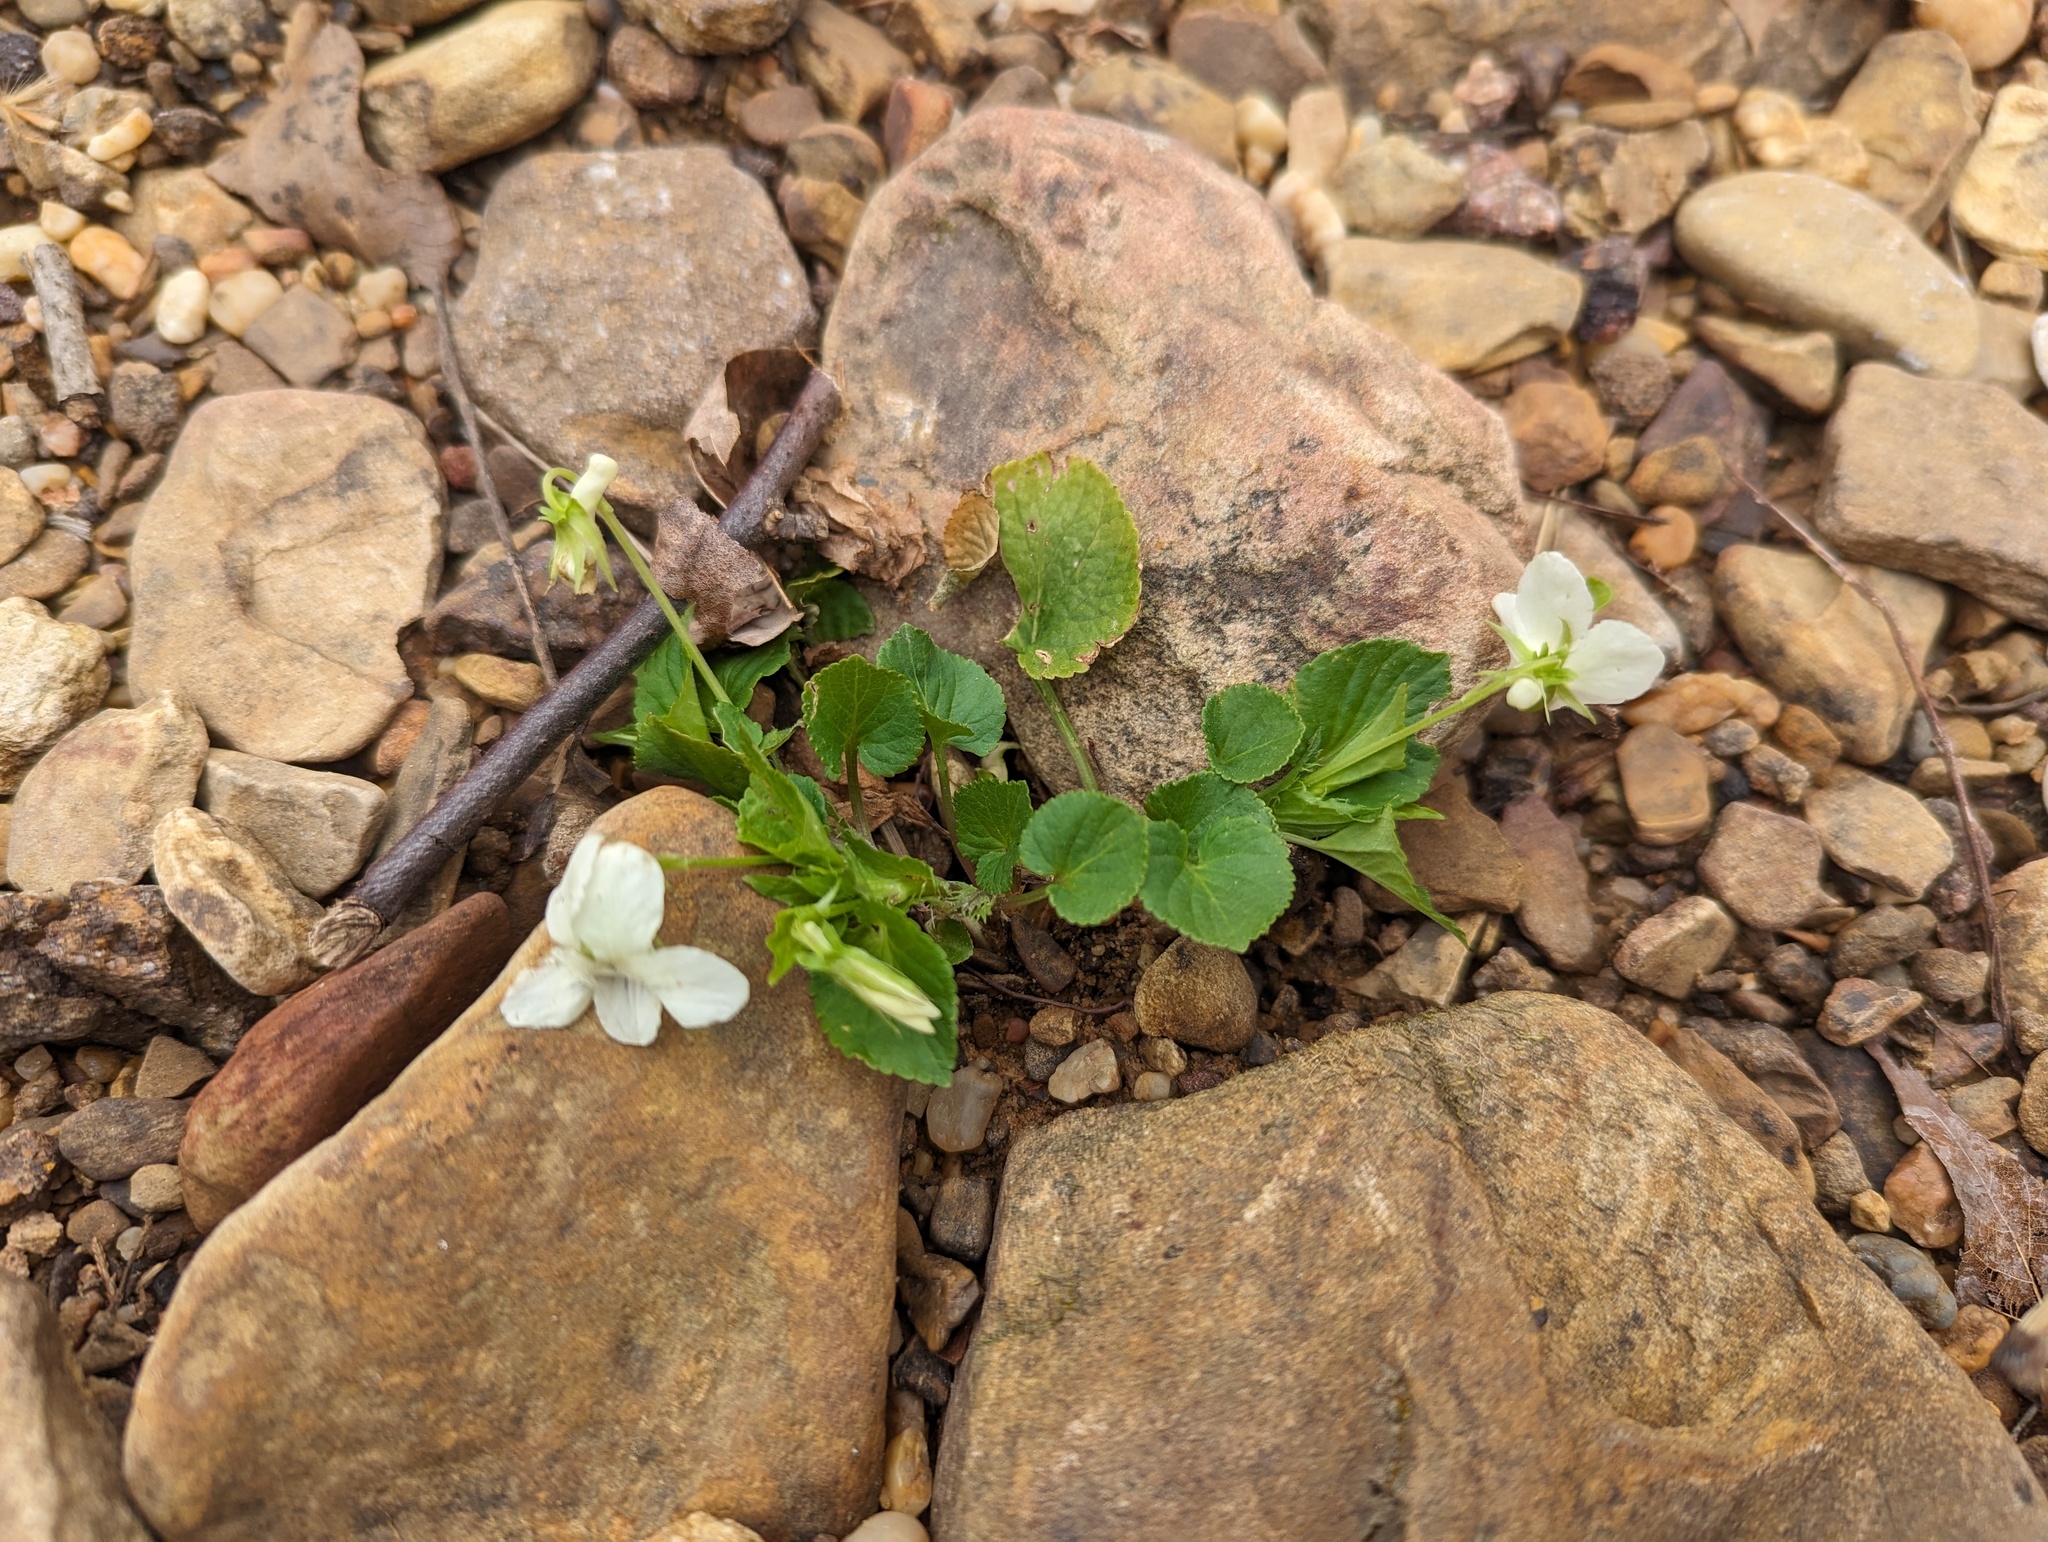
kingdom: Plantae
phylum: Tracheophyta
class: Magnoliopsida
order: Malpighiales
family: Violaceae
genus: Viola
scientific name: Viola striata
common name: Cream violet
